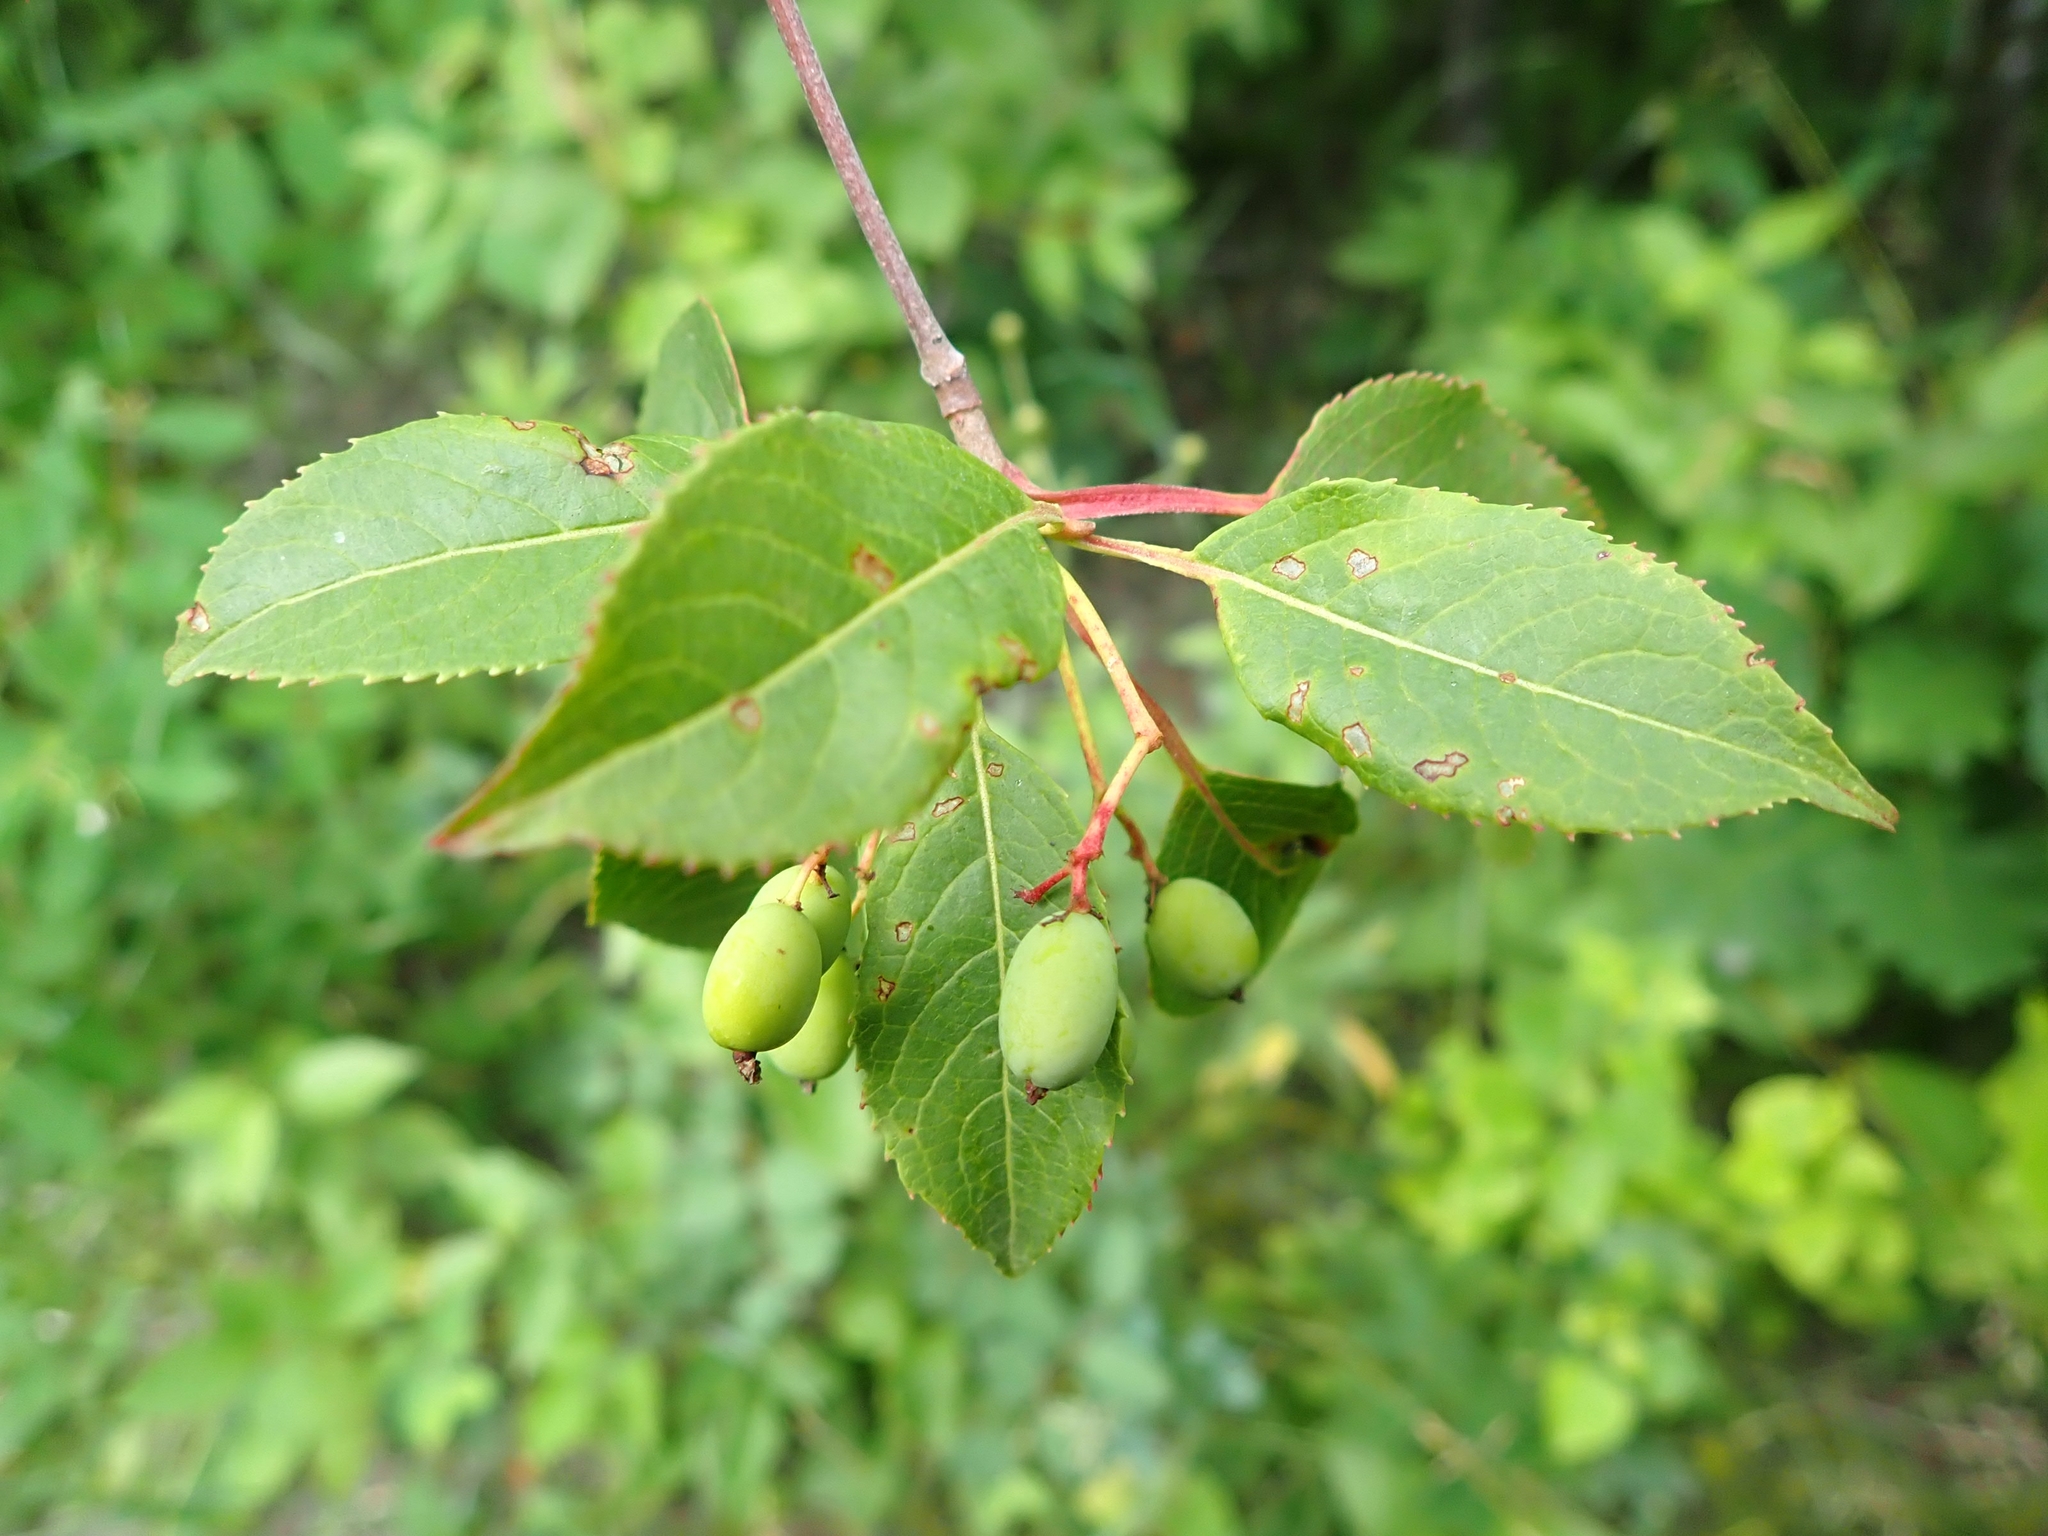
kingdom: Plantae
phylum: Tracheophyta
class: Magnoliopsida
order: Dipsacales
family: Viburnaceae
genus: Viburnum
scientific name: Viburnum lentago
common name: Black haw
